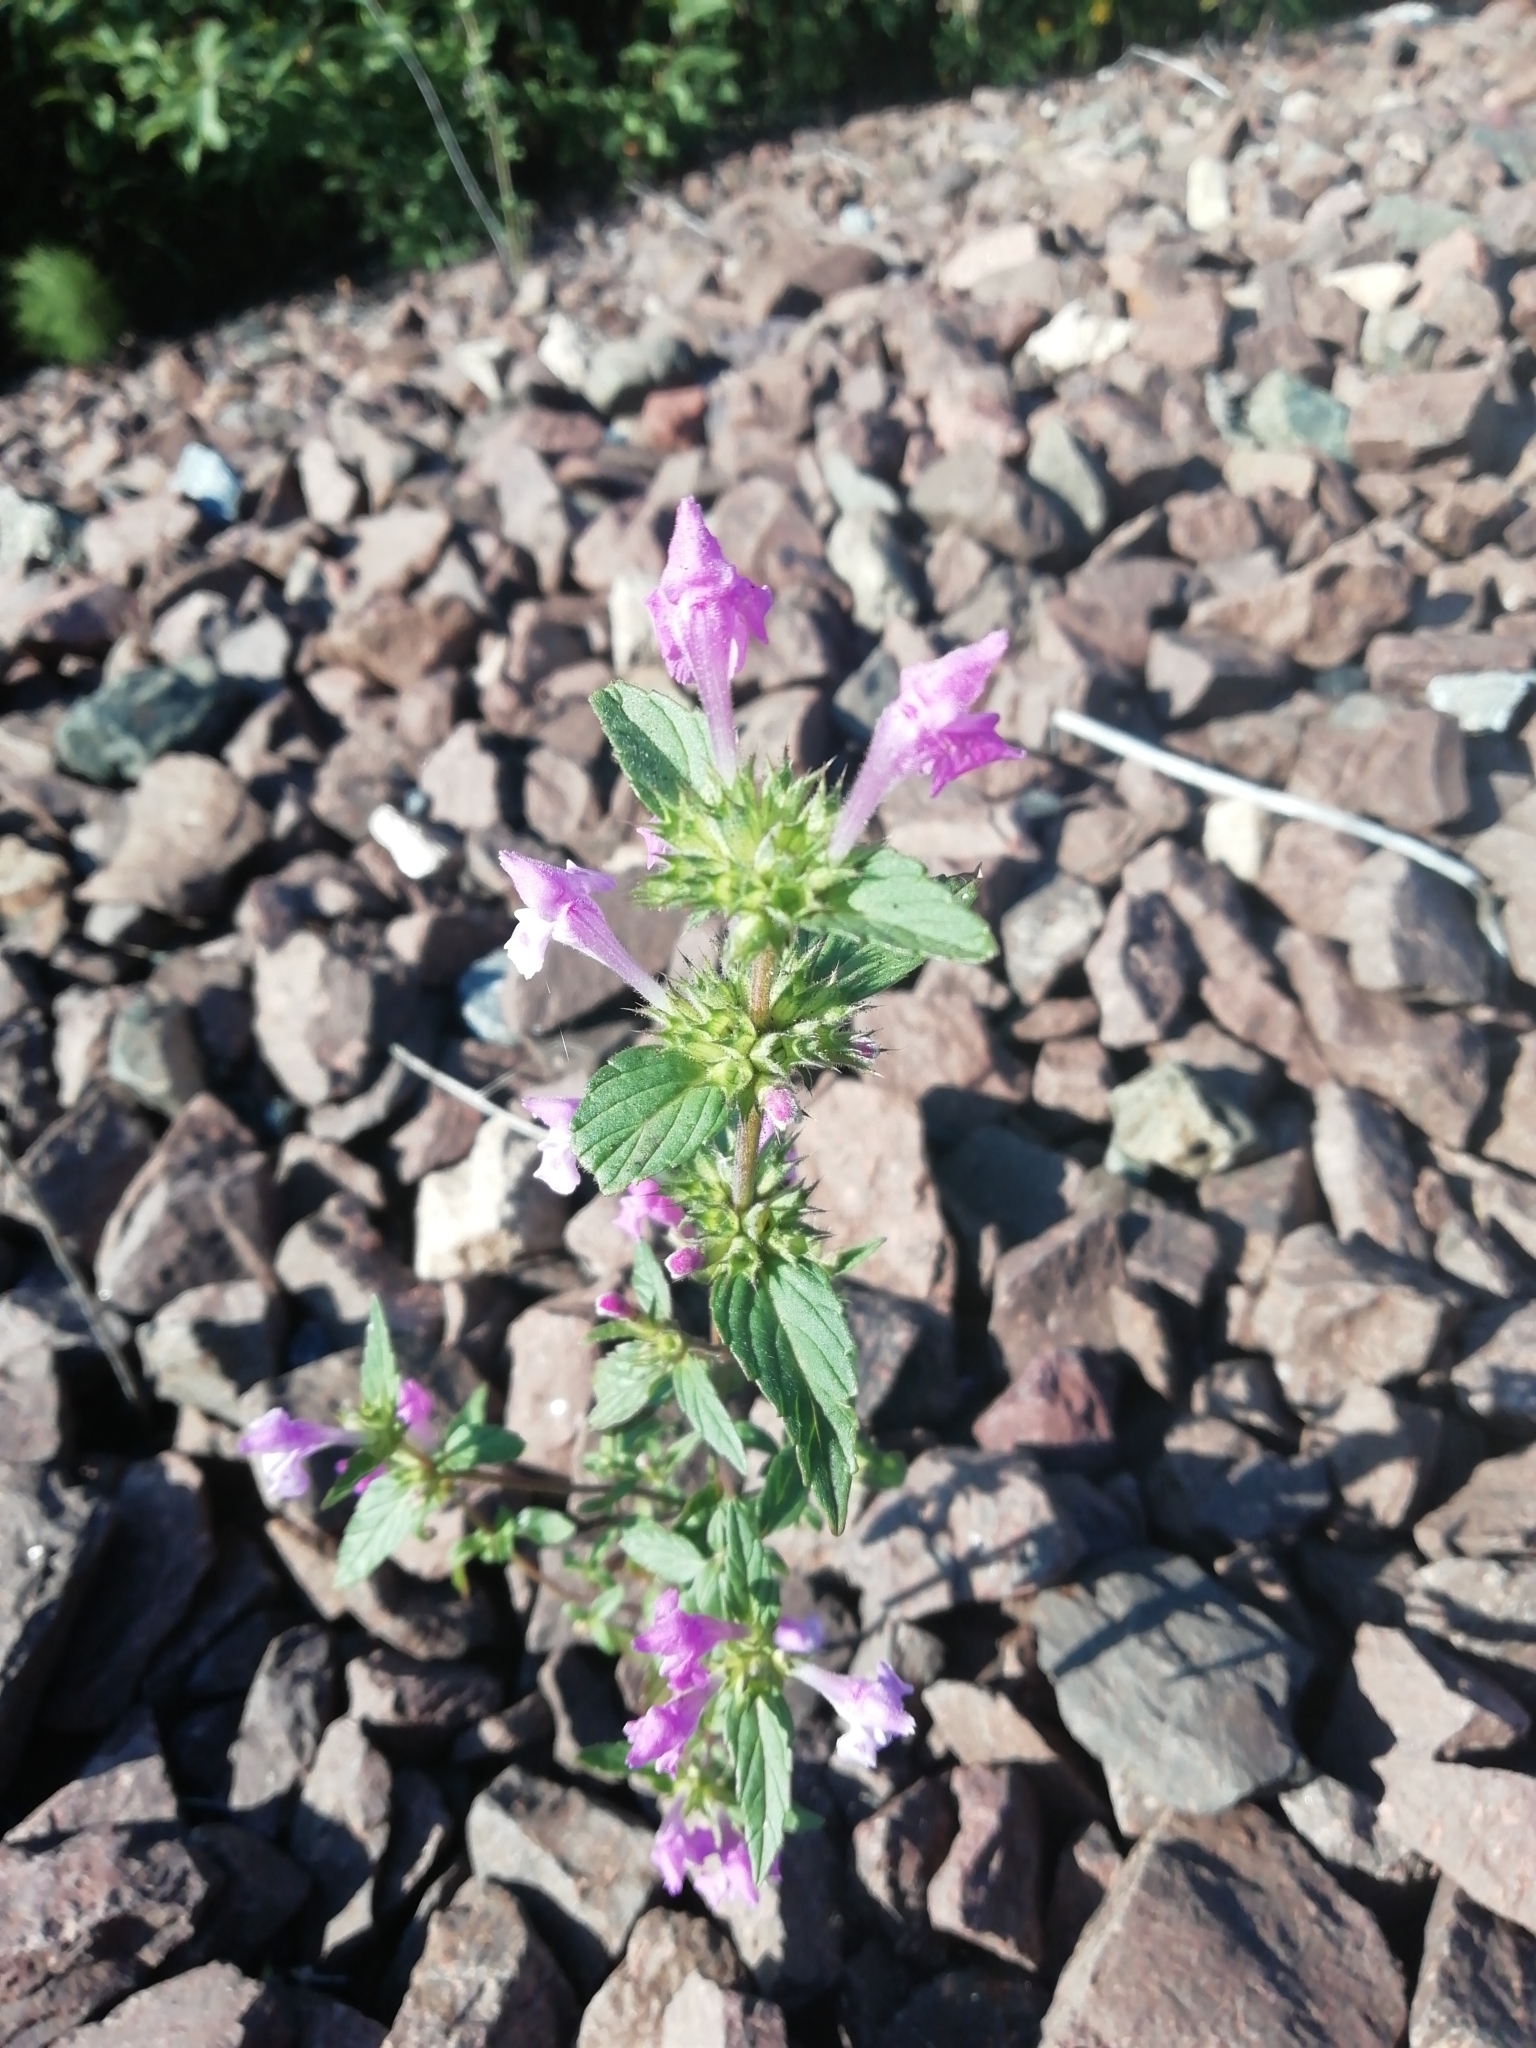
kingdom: Plantae
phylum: Tracheophyta
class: Magnoliopsida
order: Lamiales
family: Lamiaceae
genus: Galeopsis
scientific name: Galeopsis ladanum
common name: Broad-leaved hemp-nettle
